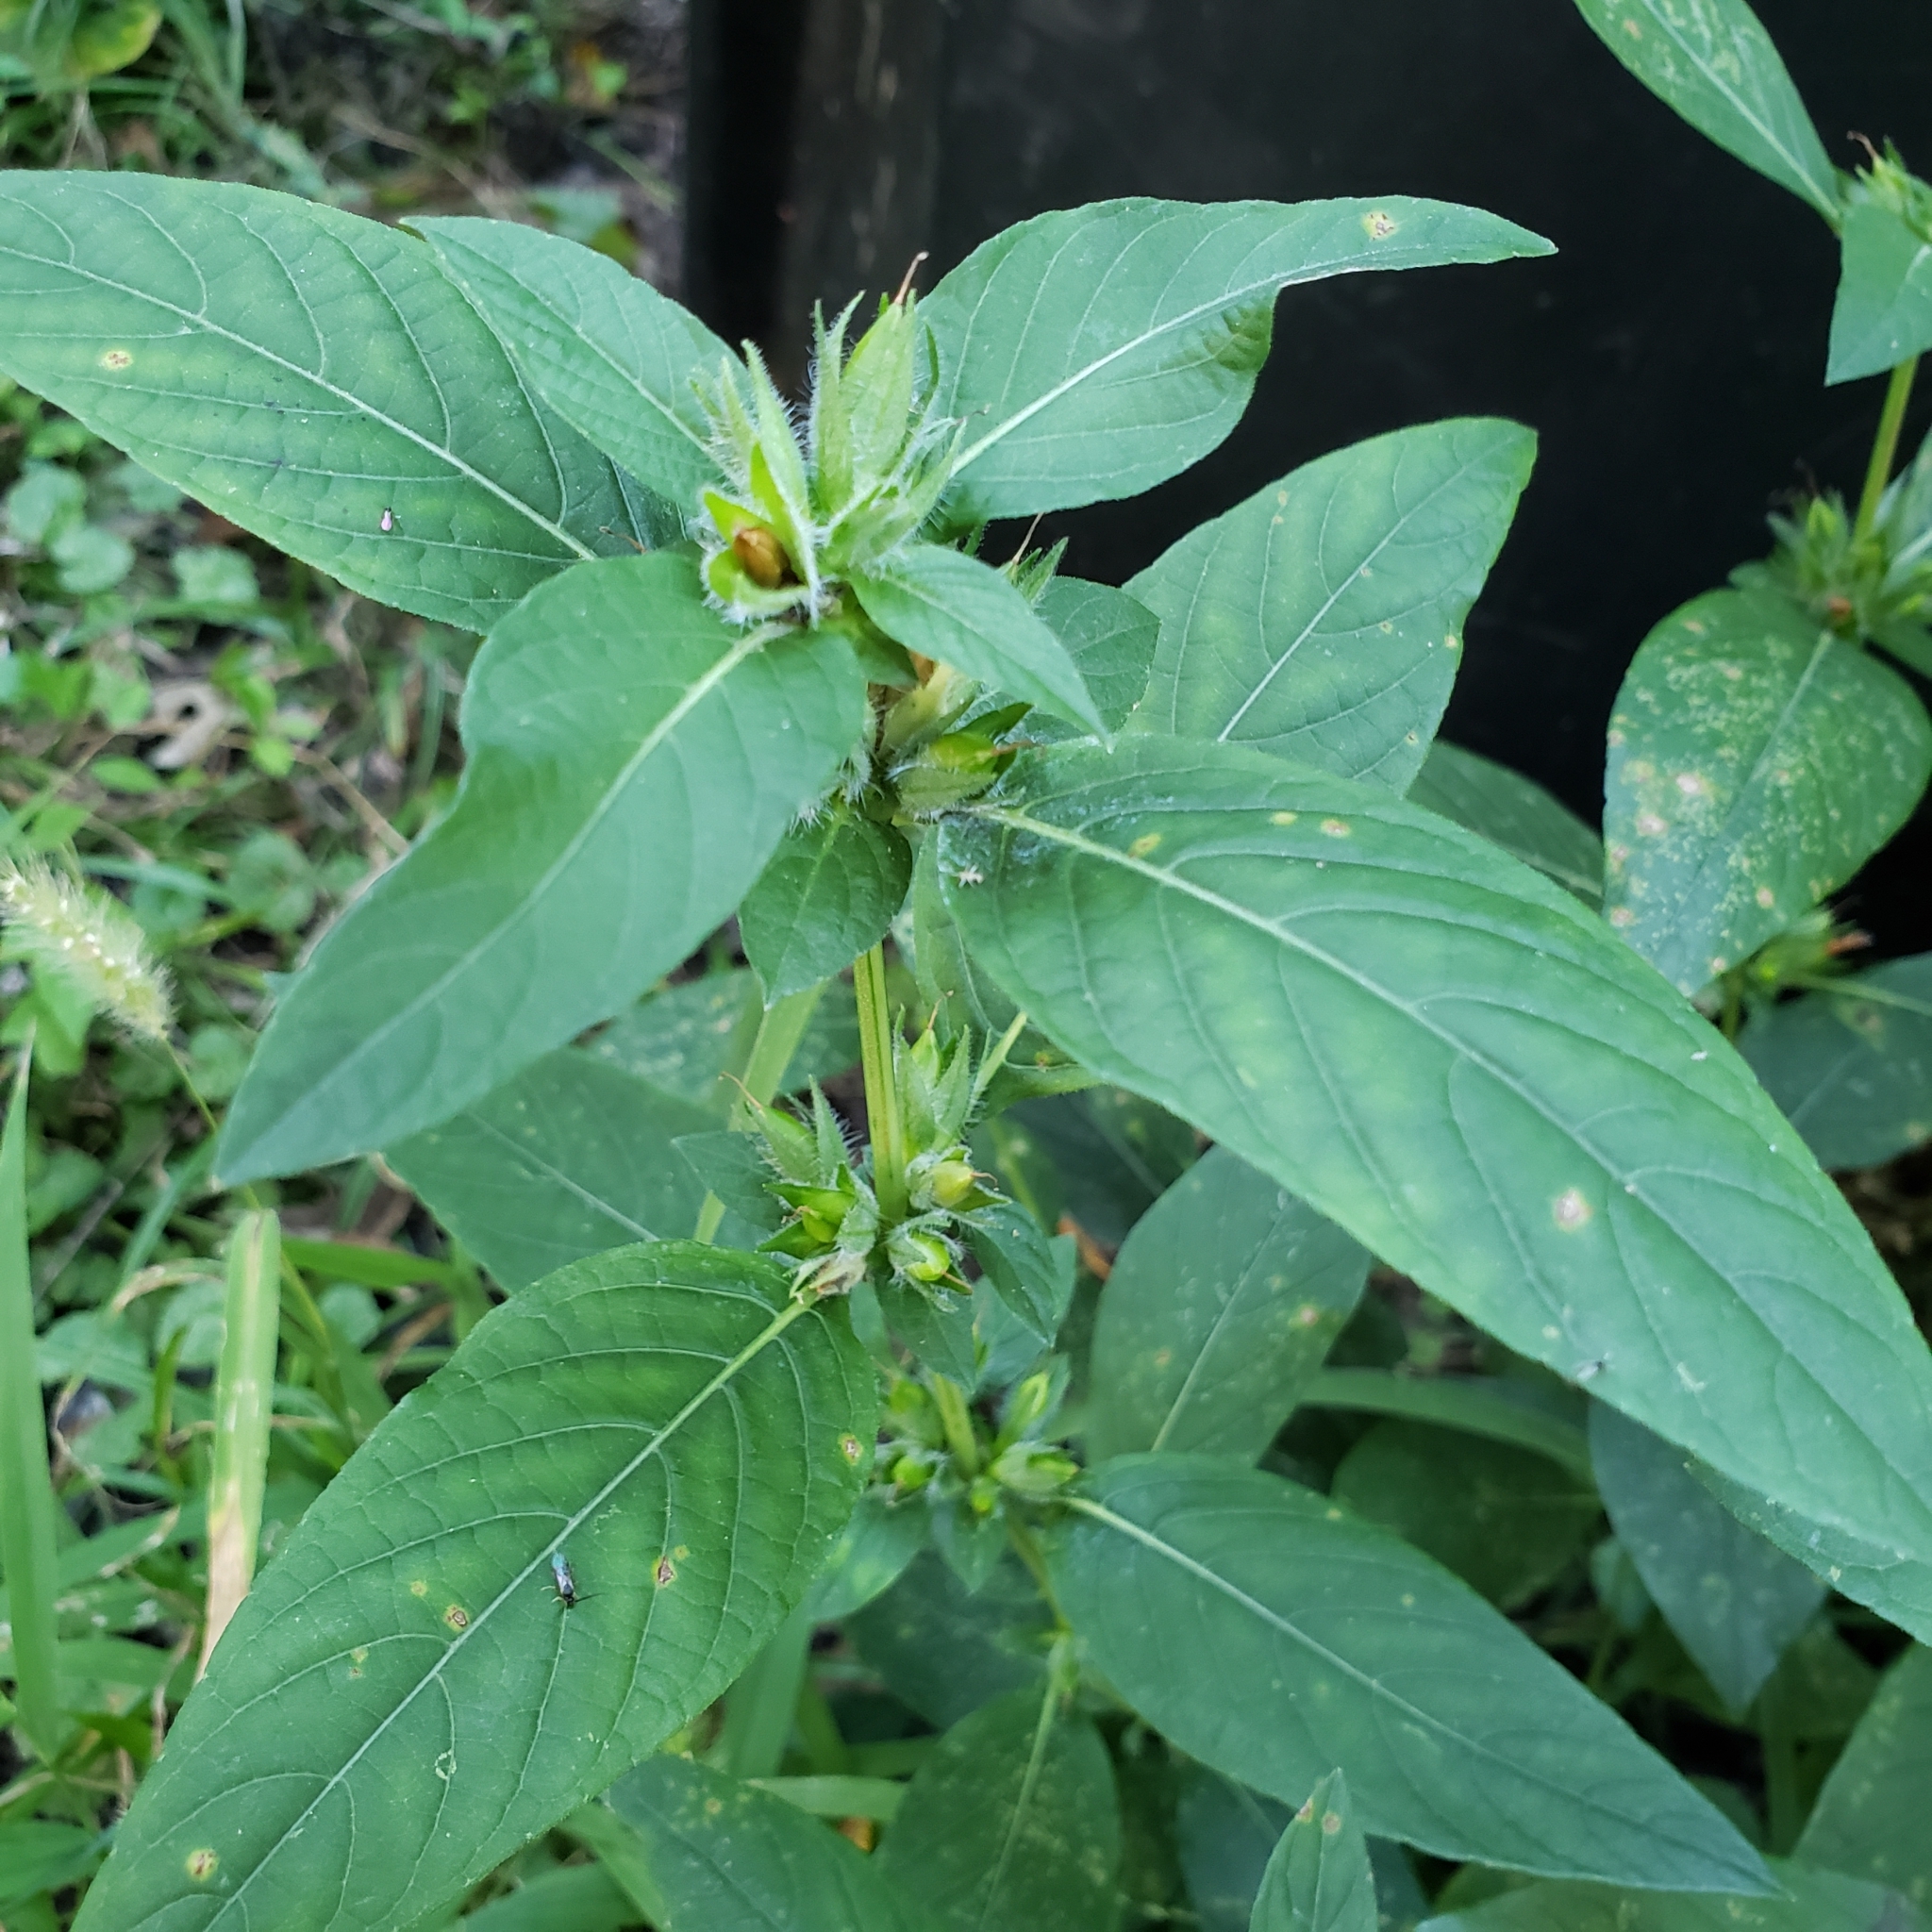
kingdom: Plantae
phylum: Tracheophyta
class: Magnoliopsida
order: Lamiales
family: Acanthaceae
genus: Ruellia
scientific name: Ruellia strepens
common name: Limestone wild petunia
